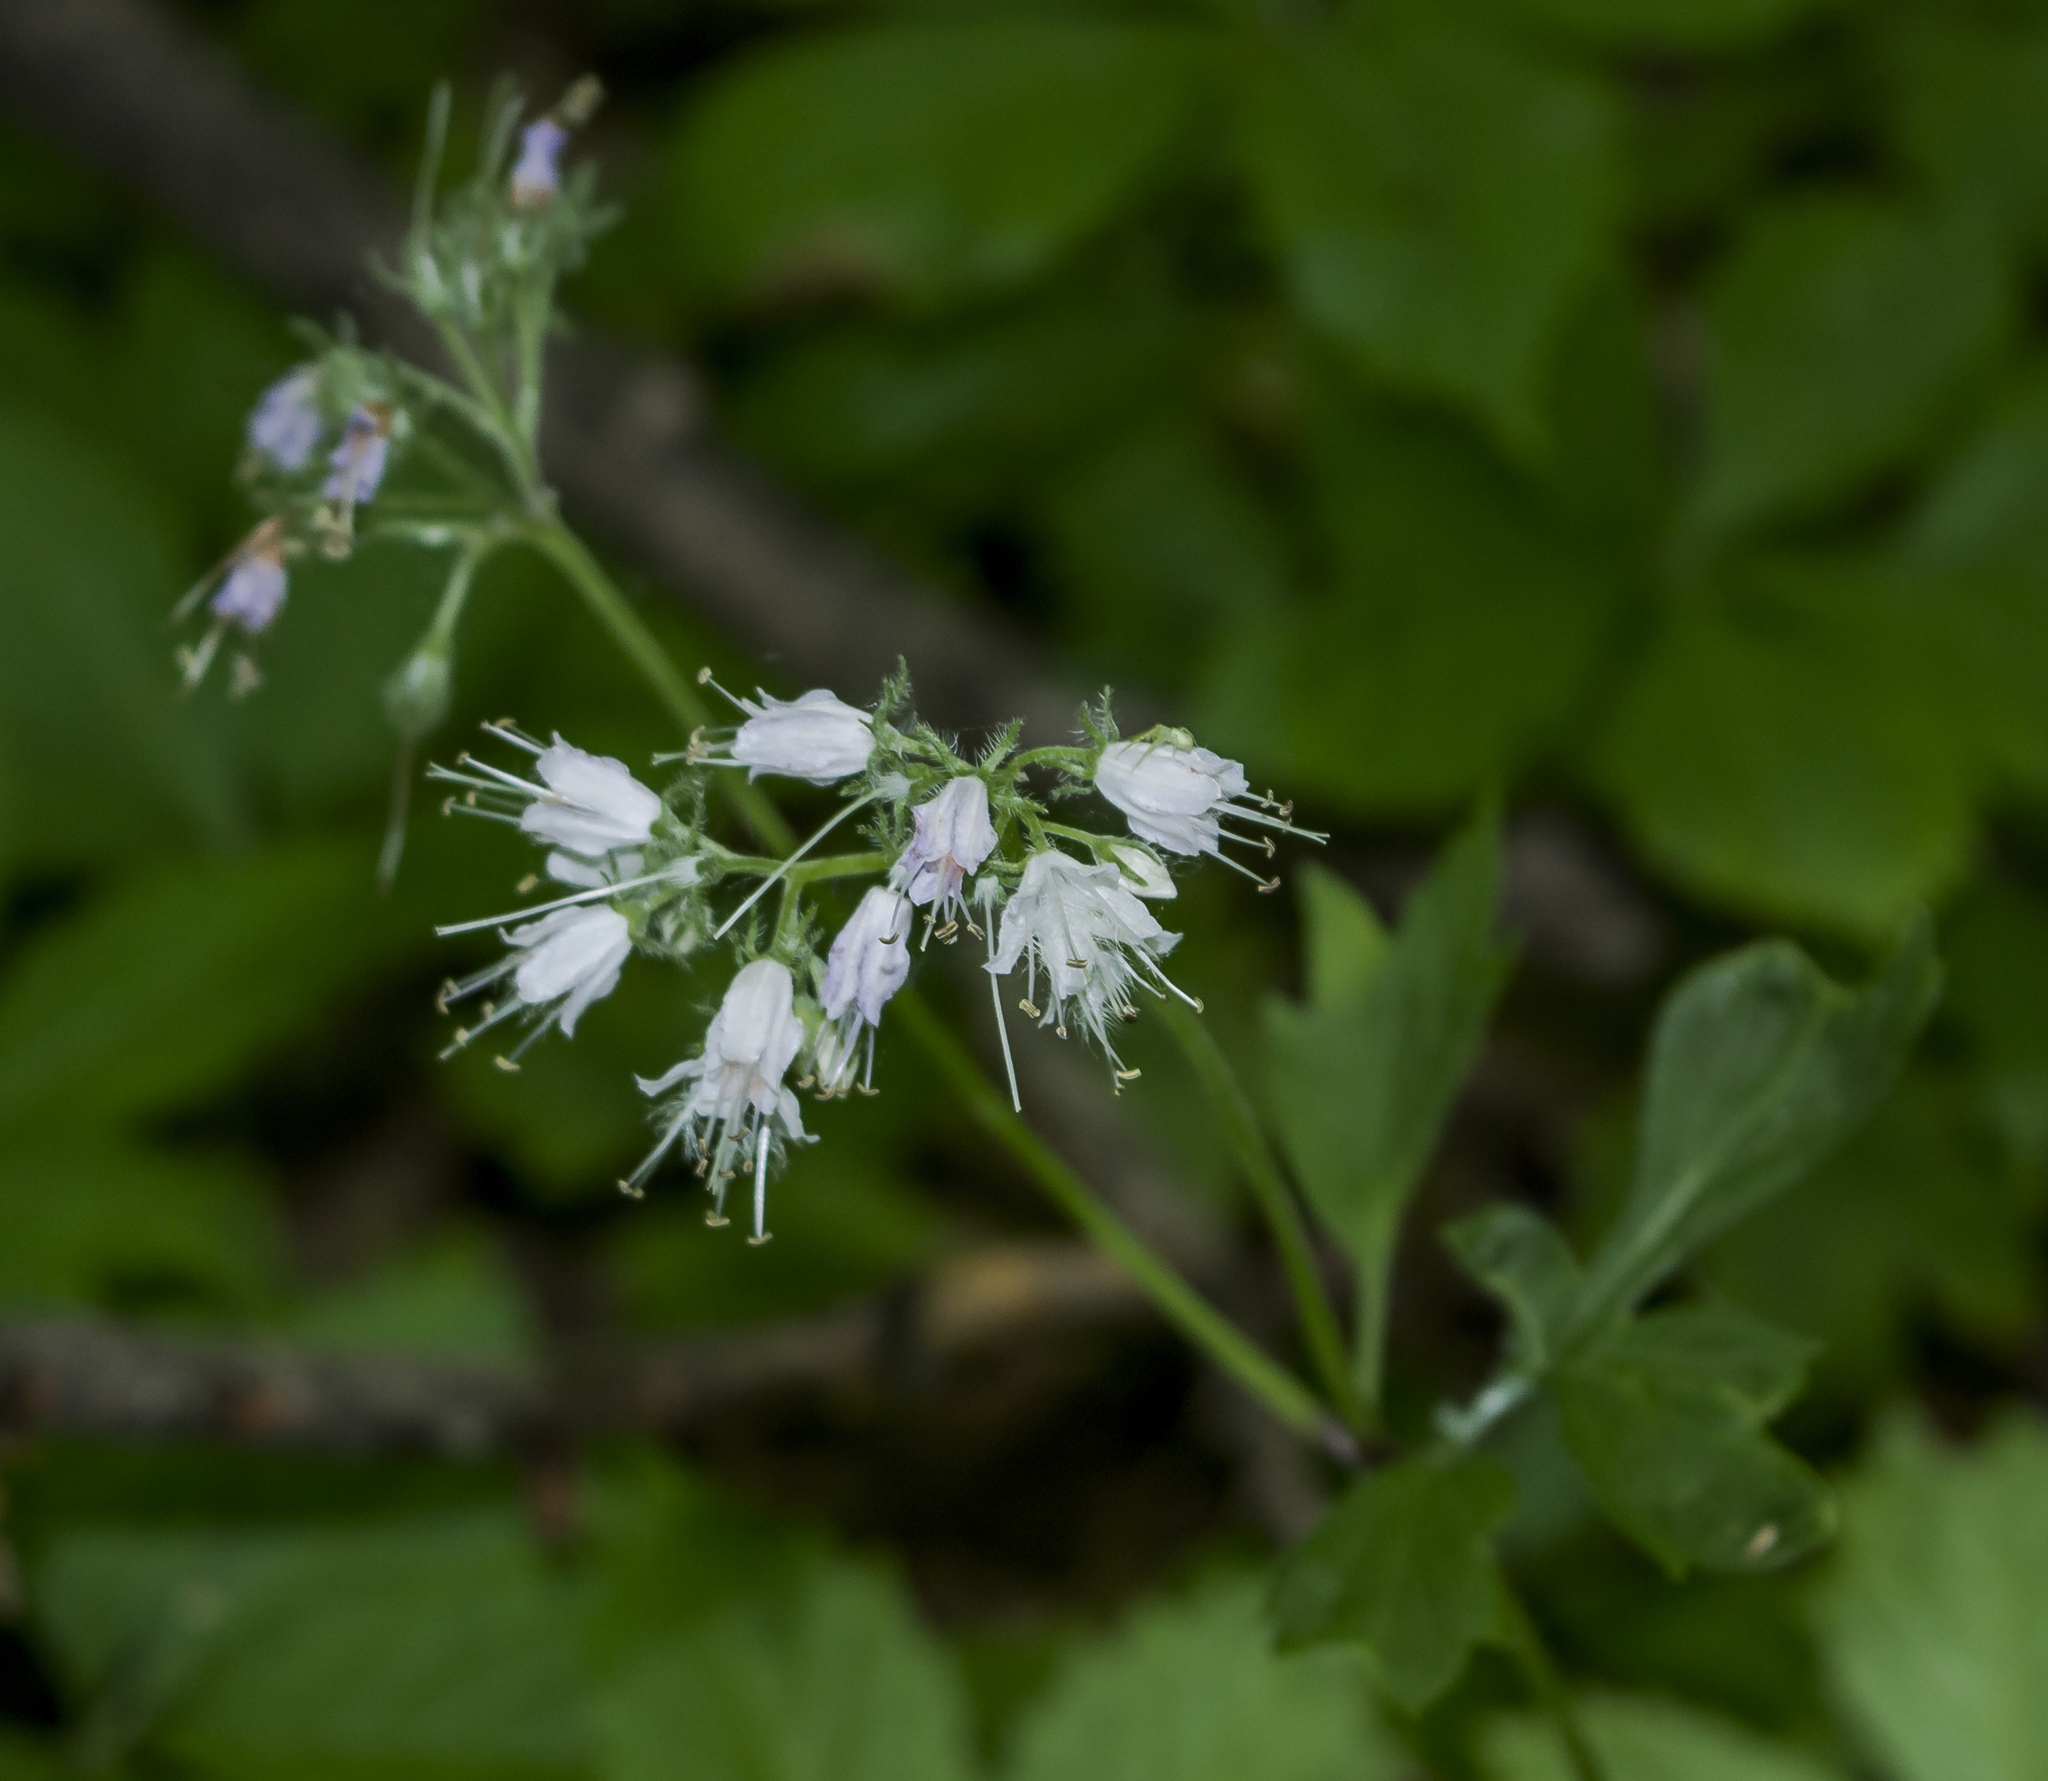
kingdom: Plantae
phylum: Tracheophyta
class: Magnoliopsida
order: Boraginales
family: Hydrophyllaceae
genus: Hydrophyllum
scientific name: Hydrophyllum virginianum
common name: Virginia waterleaf
